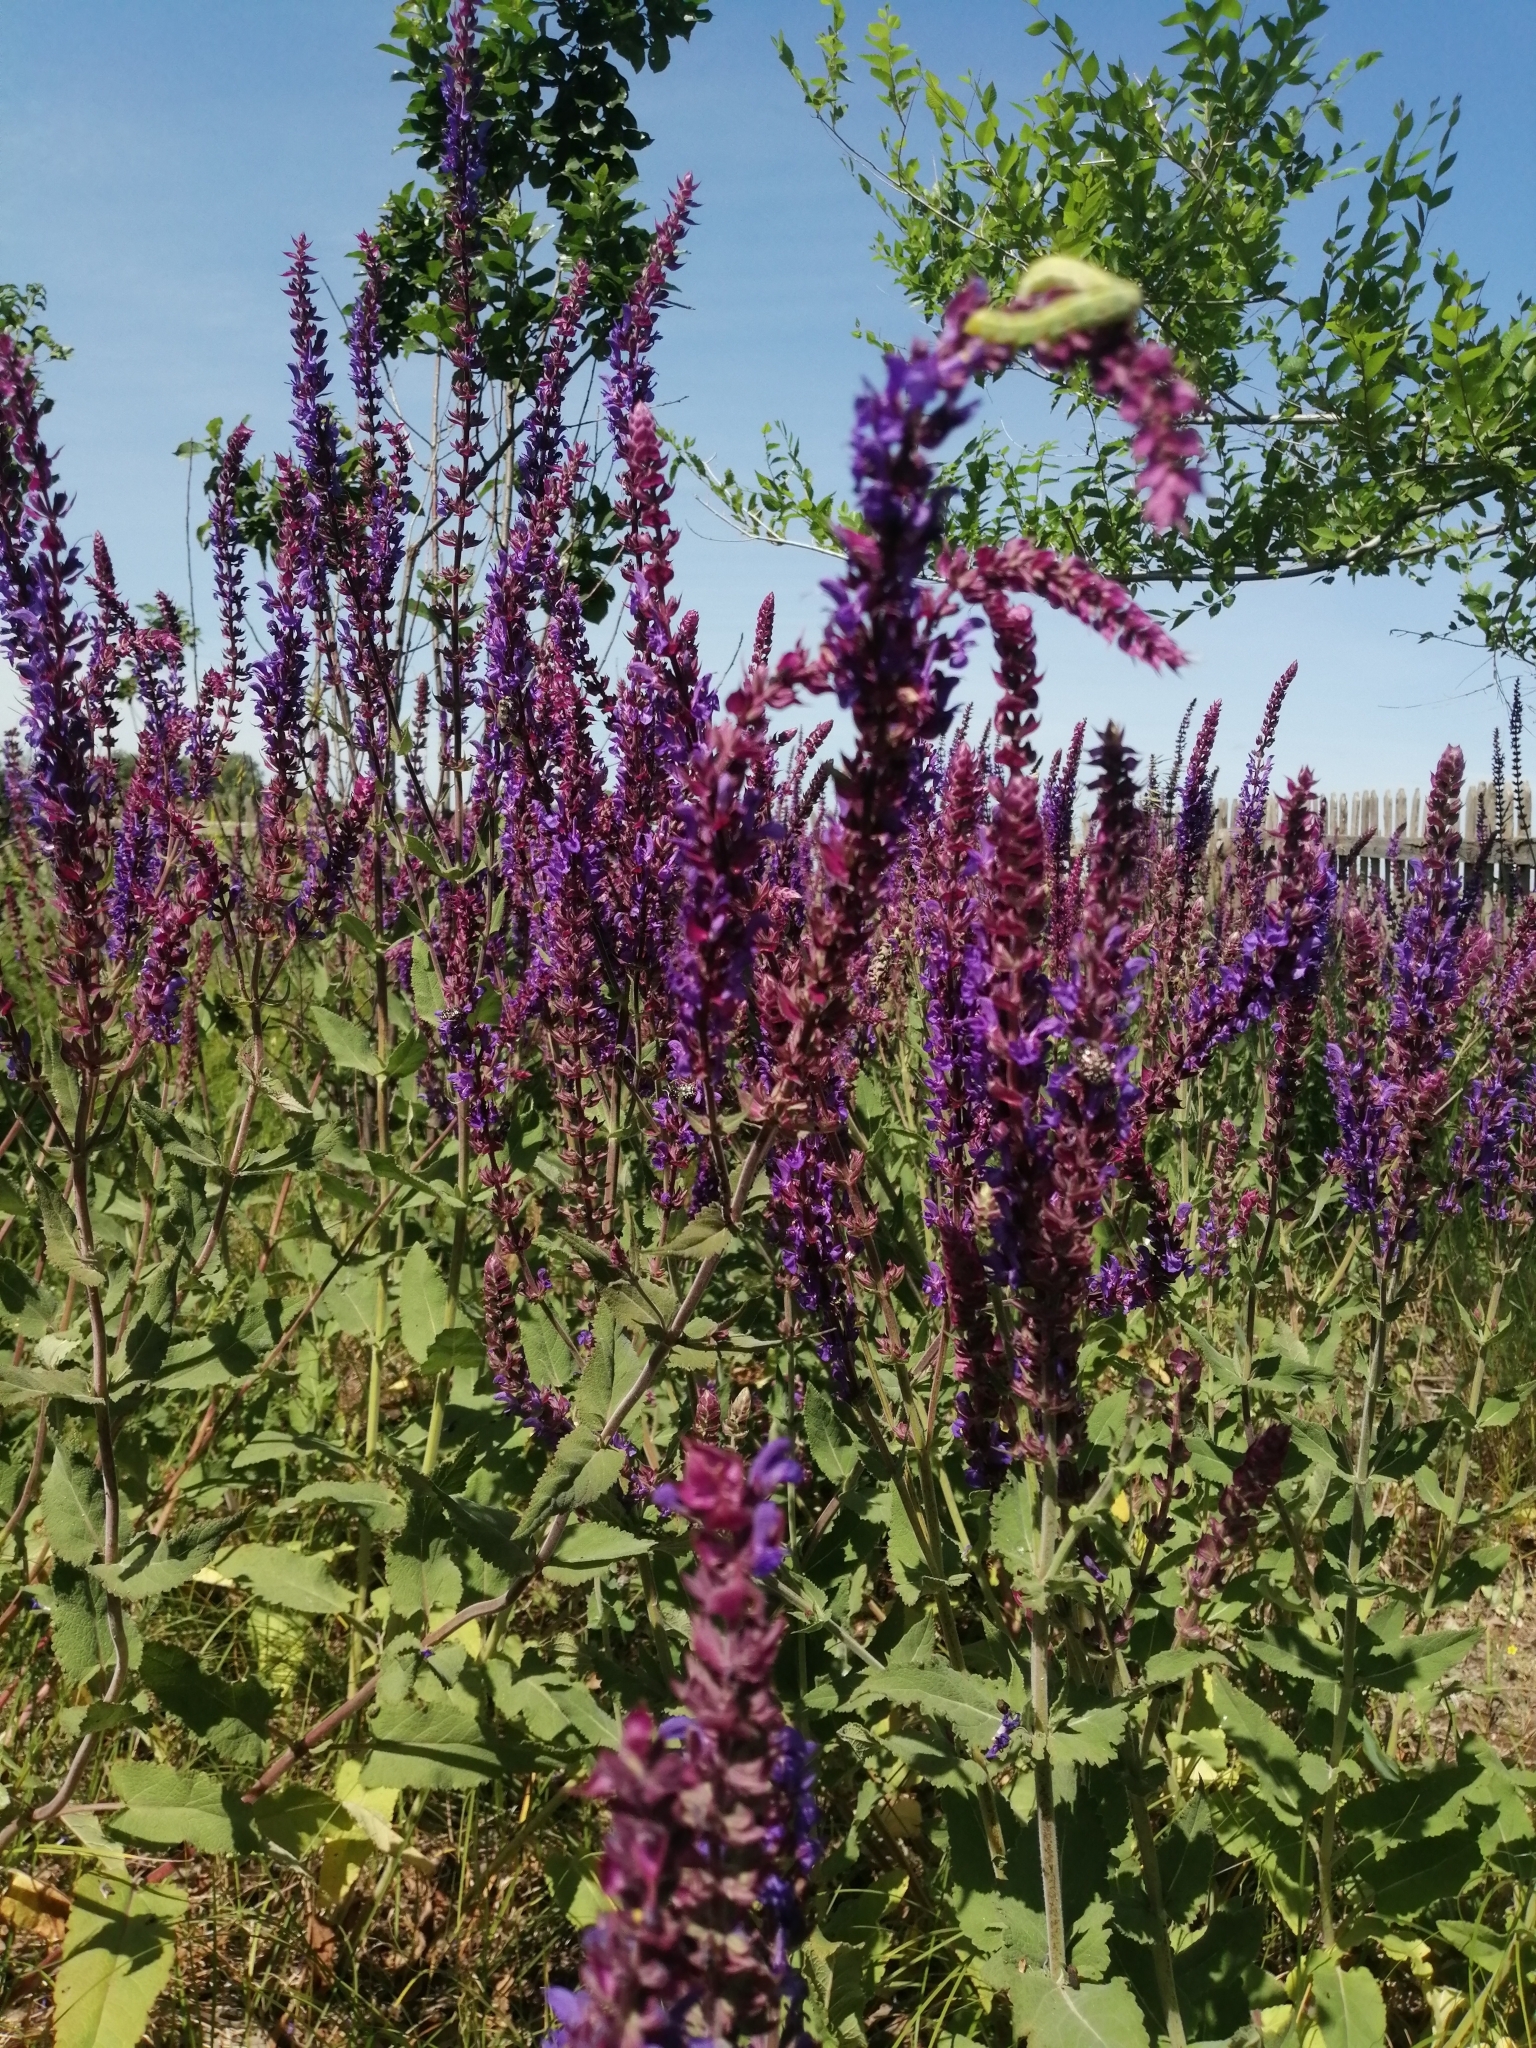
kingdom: Plantae
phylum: Tracheophyta
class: Magnoliopsida
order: Lamiales
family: Lamiaceae
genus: Salvia
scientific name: Salvia nemorosa
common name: Balkan clary
